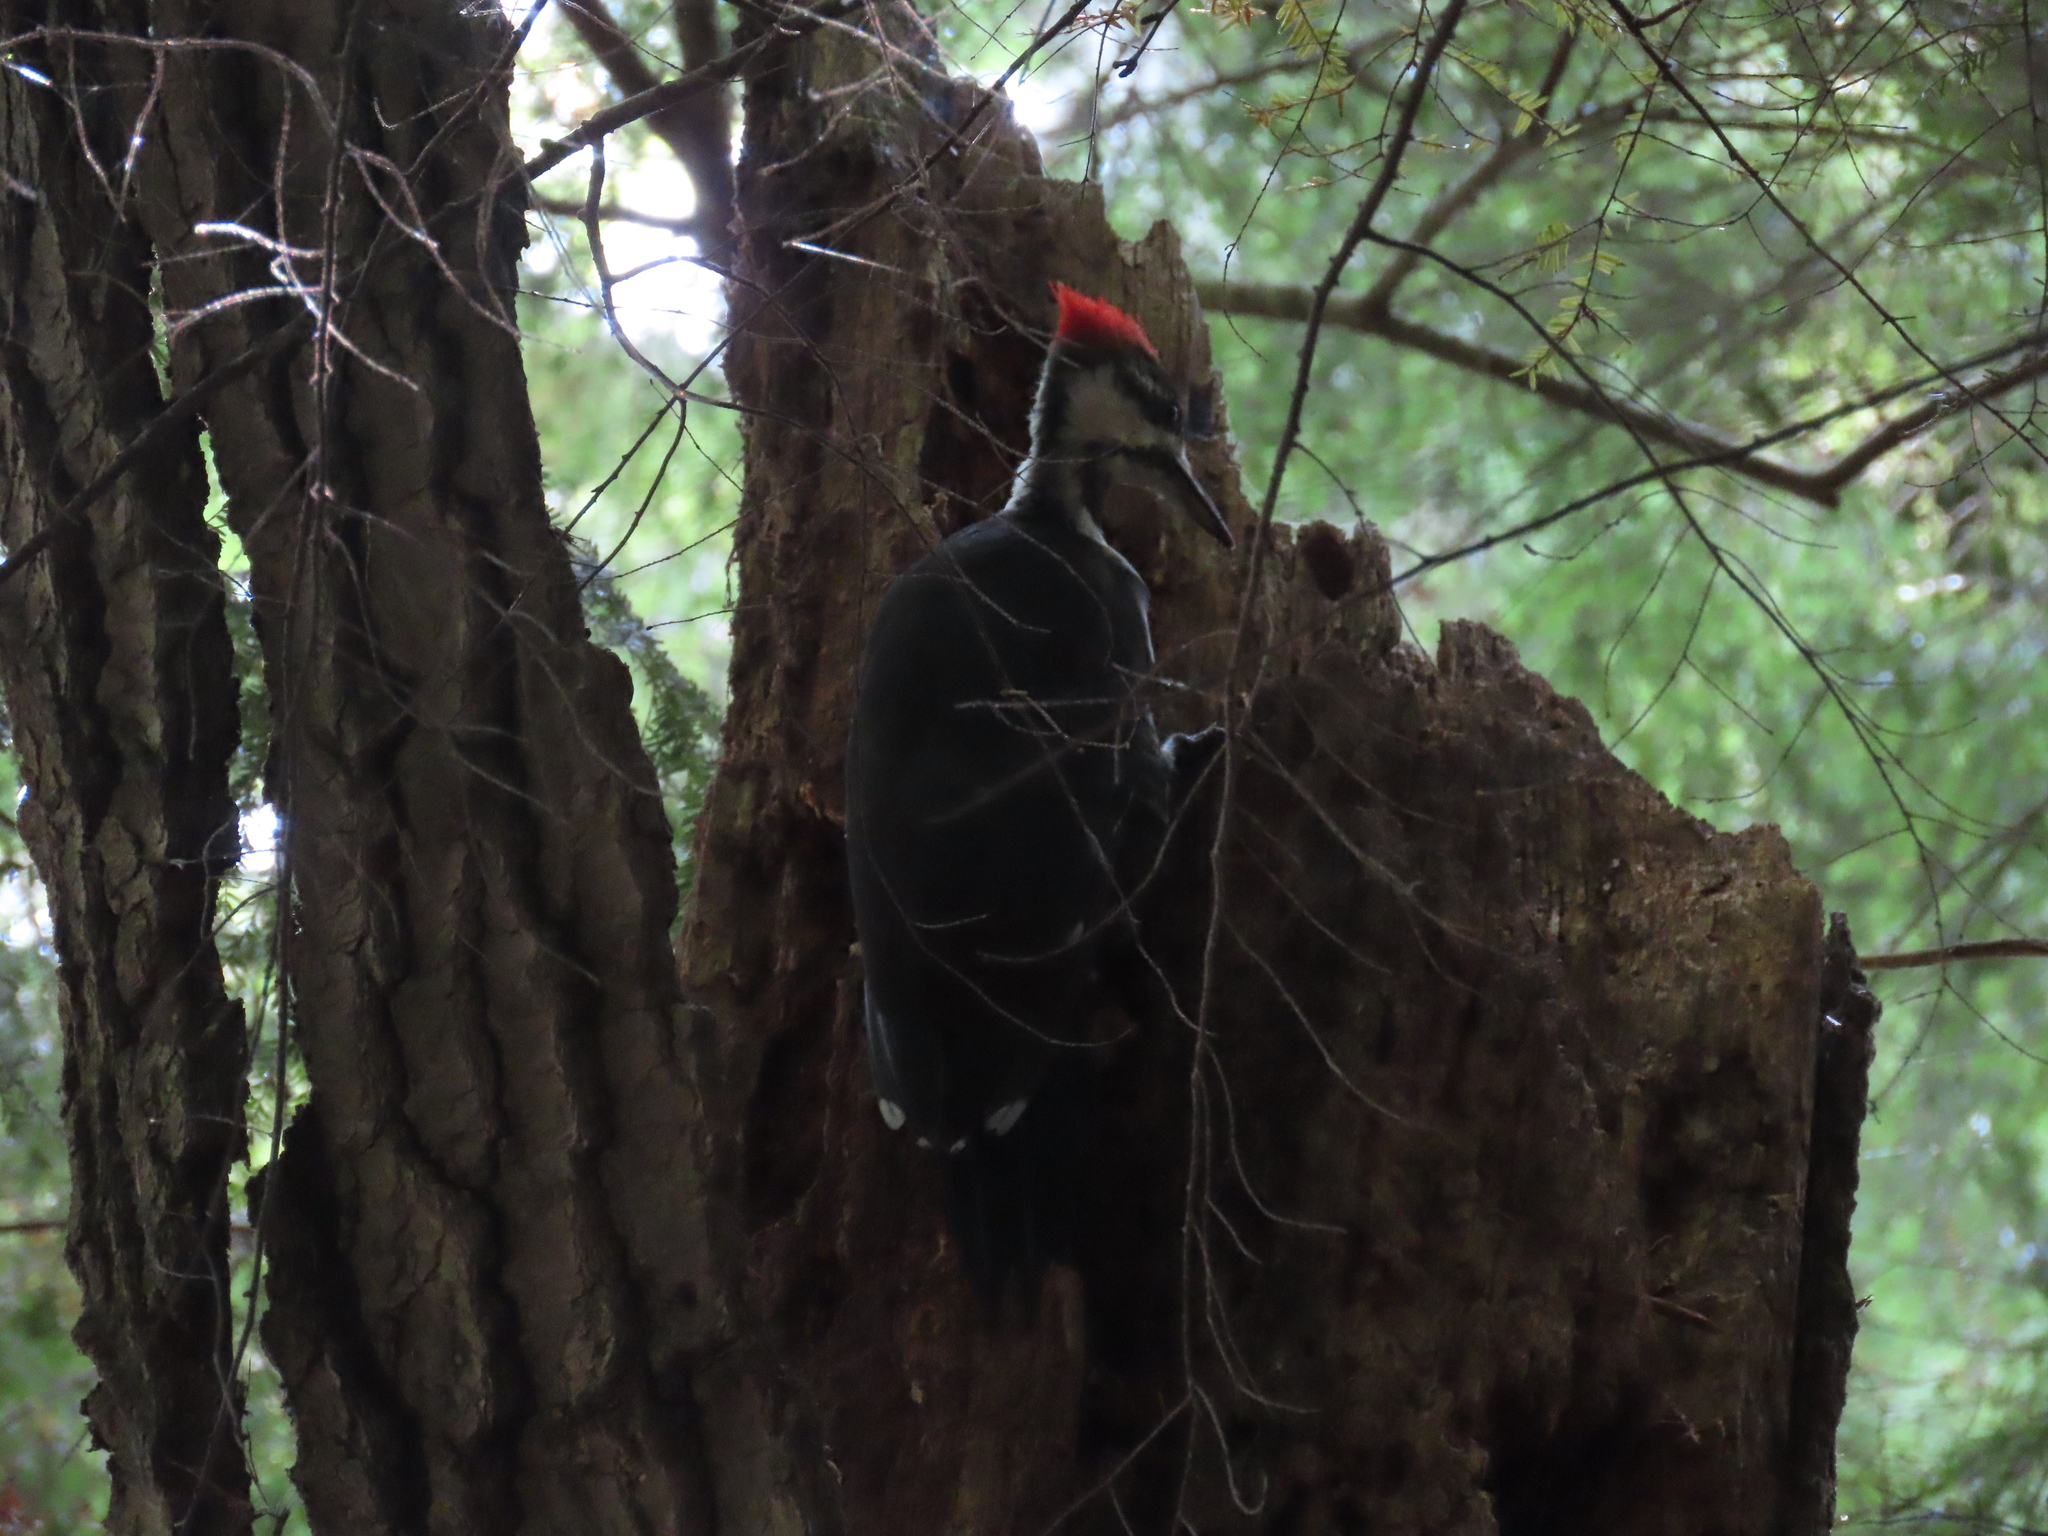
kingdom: Animalia
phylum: Chordata
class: Aves
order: Piciformes
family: Picidae
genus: Dryocopus
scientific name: Dryocopus pileatus
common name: Pileated woodpecker
